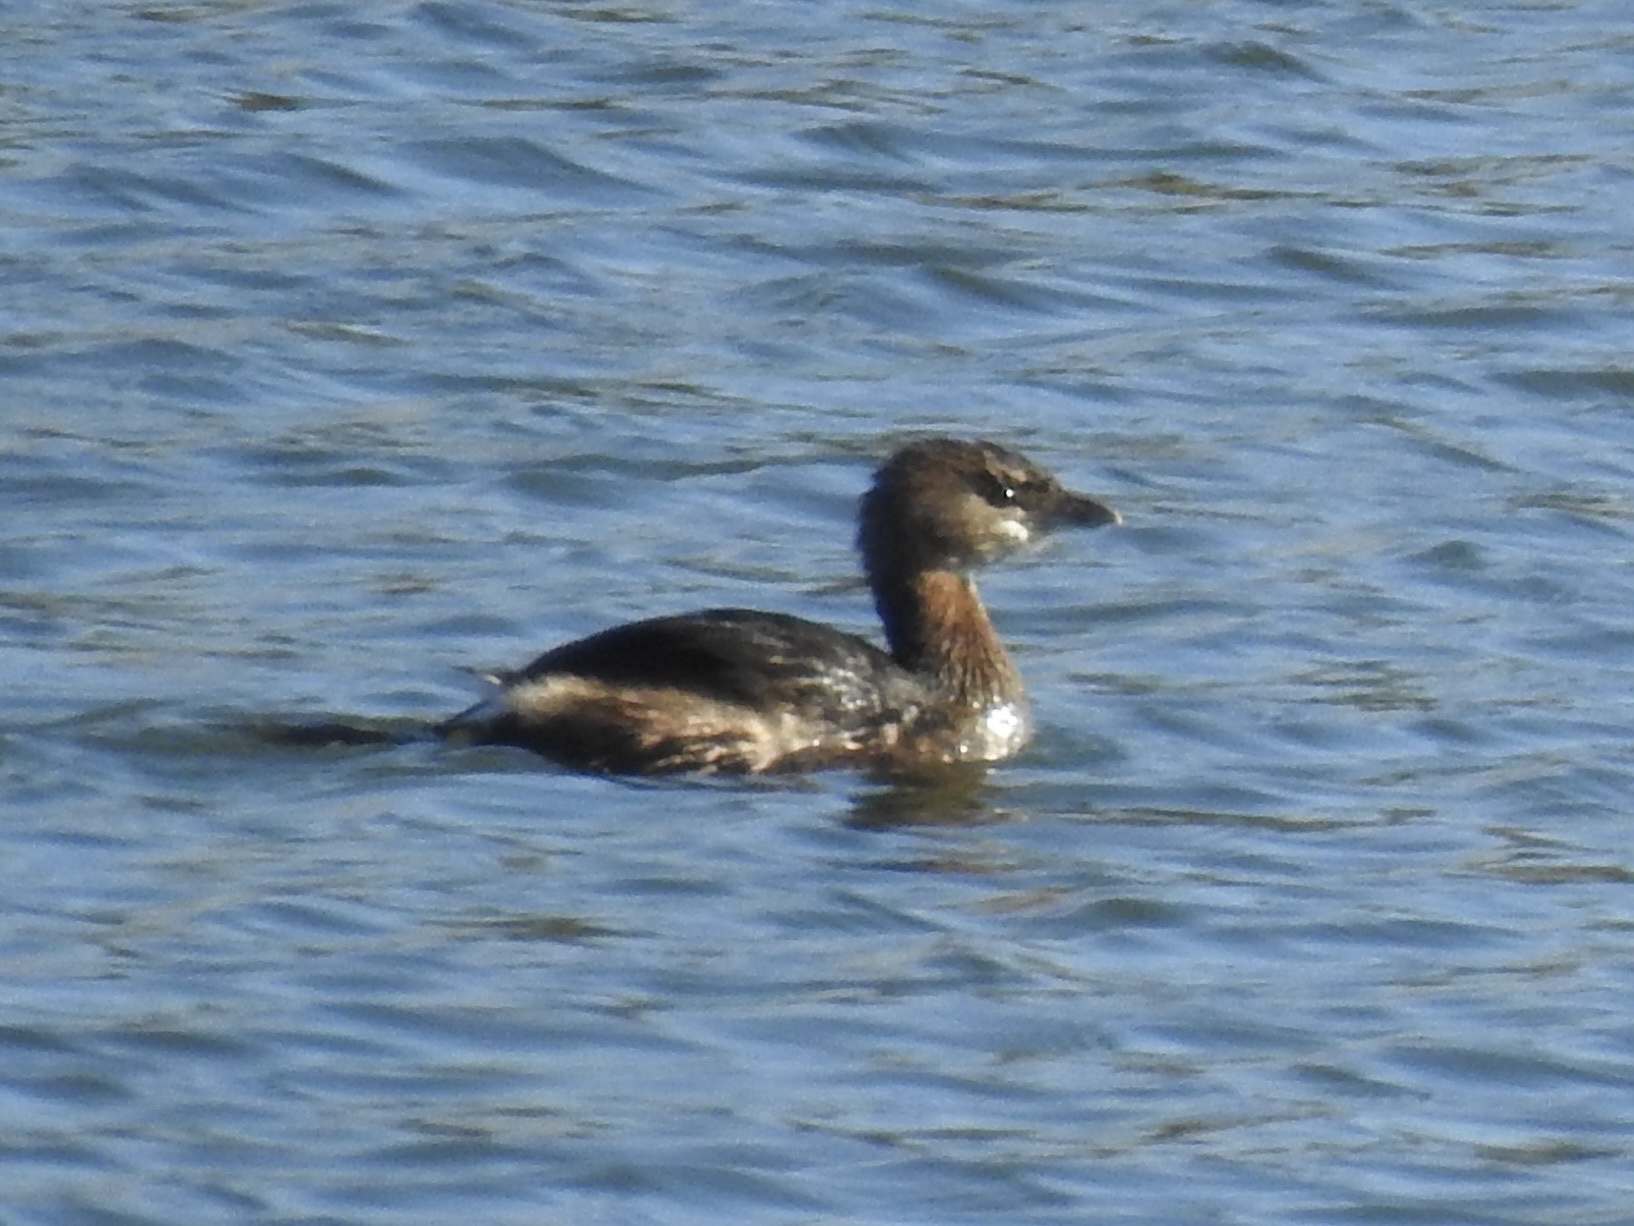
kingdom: Animalia
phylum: Chordata
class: Aves
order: Podicipediformes
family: Podicipedidae
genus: Podilymbus
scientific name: Podilymbus podiceps
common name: Pied-billed grebe
